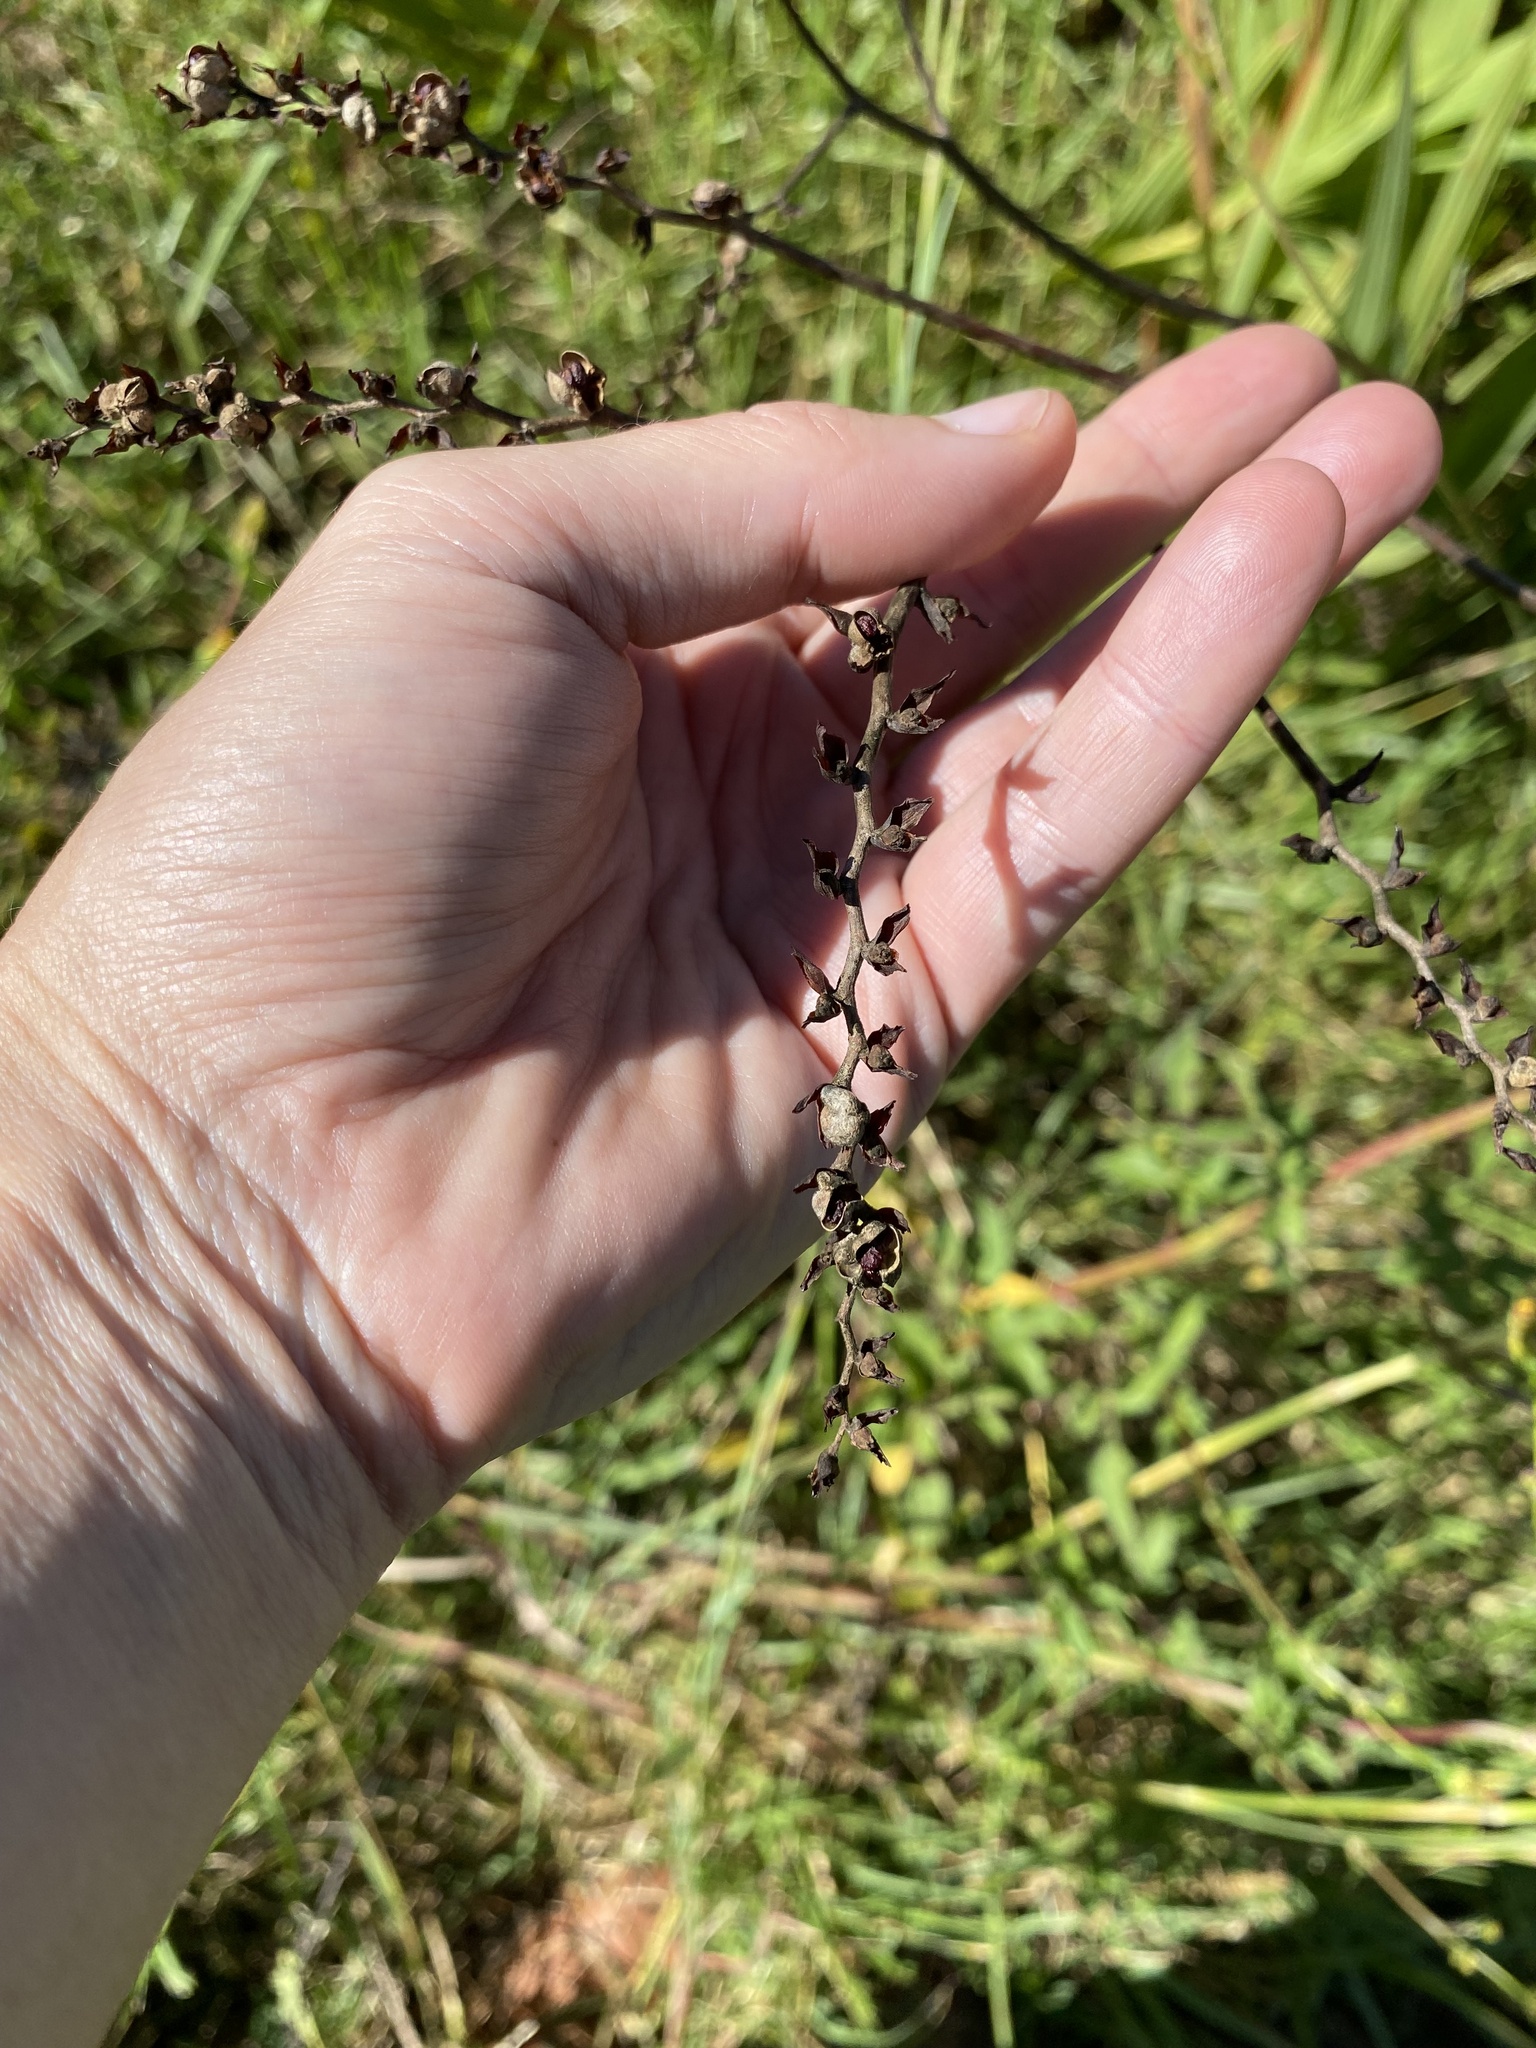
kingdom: Plantae
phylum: Tracheophyta
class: Liliopsida
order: Asparagales
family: Iridaceae
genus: Crocosmia
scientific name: Crocosmia paniculata
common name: Aunt eliza
